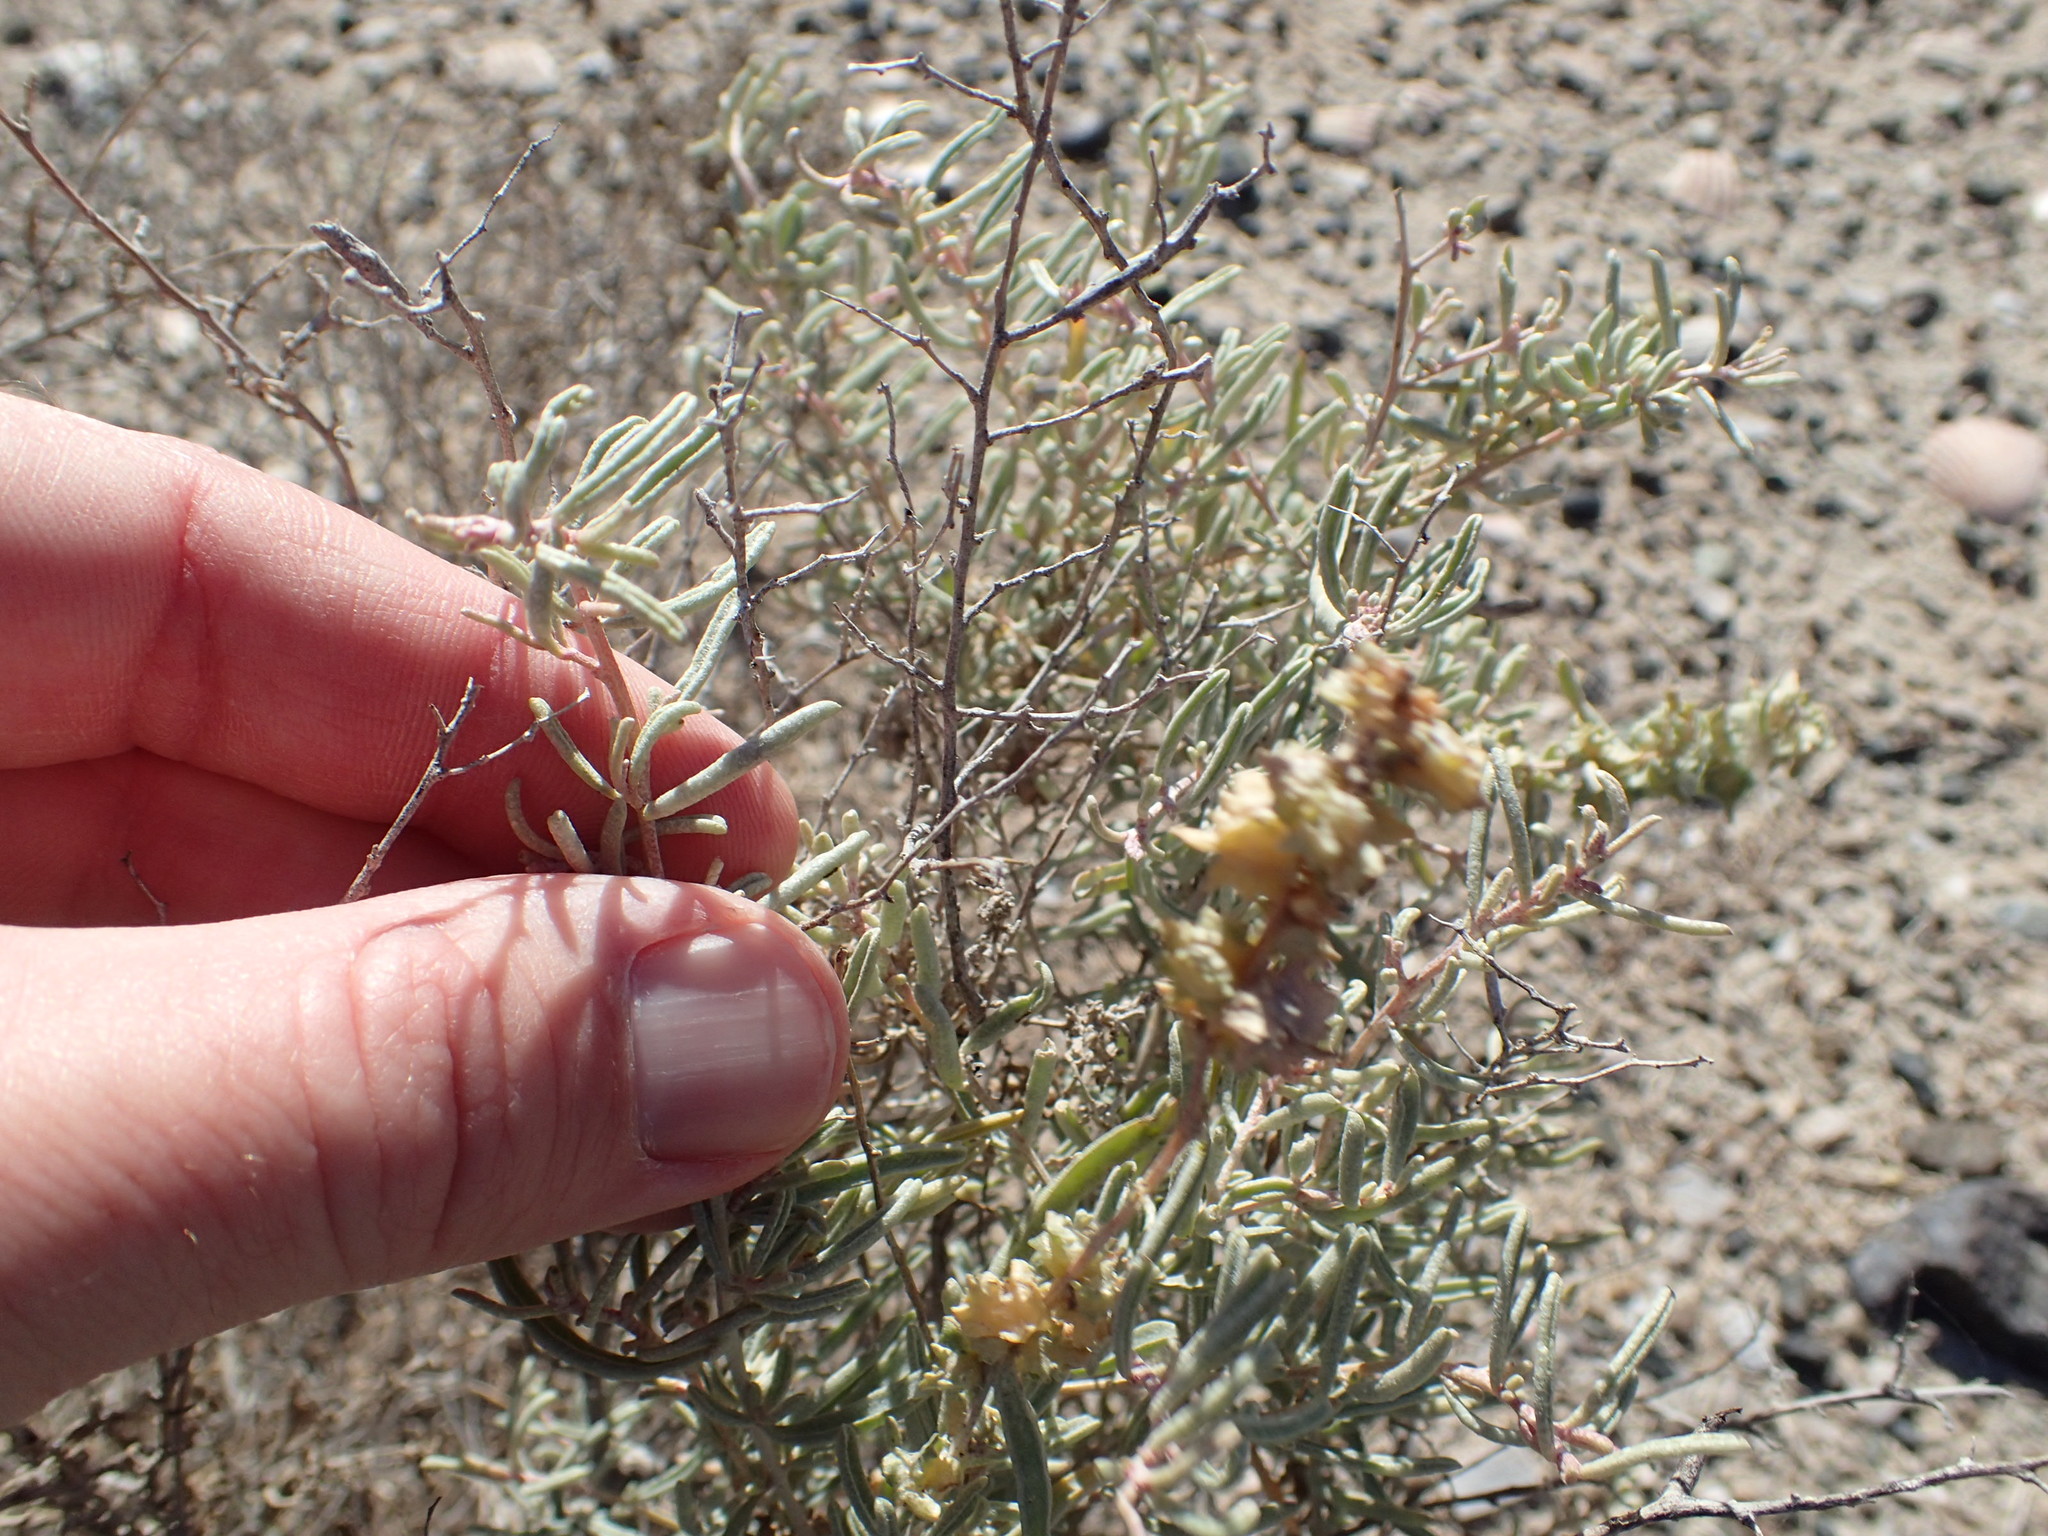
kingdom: Plantae
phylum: Tracheophyta
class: Magnoliopsida
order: Caryophyllales
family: Amaranthaceae
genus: Atriplex
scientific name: Atriplex canescens
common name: Four-wing saltbush
